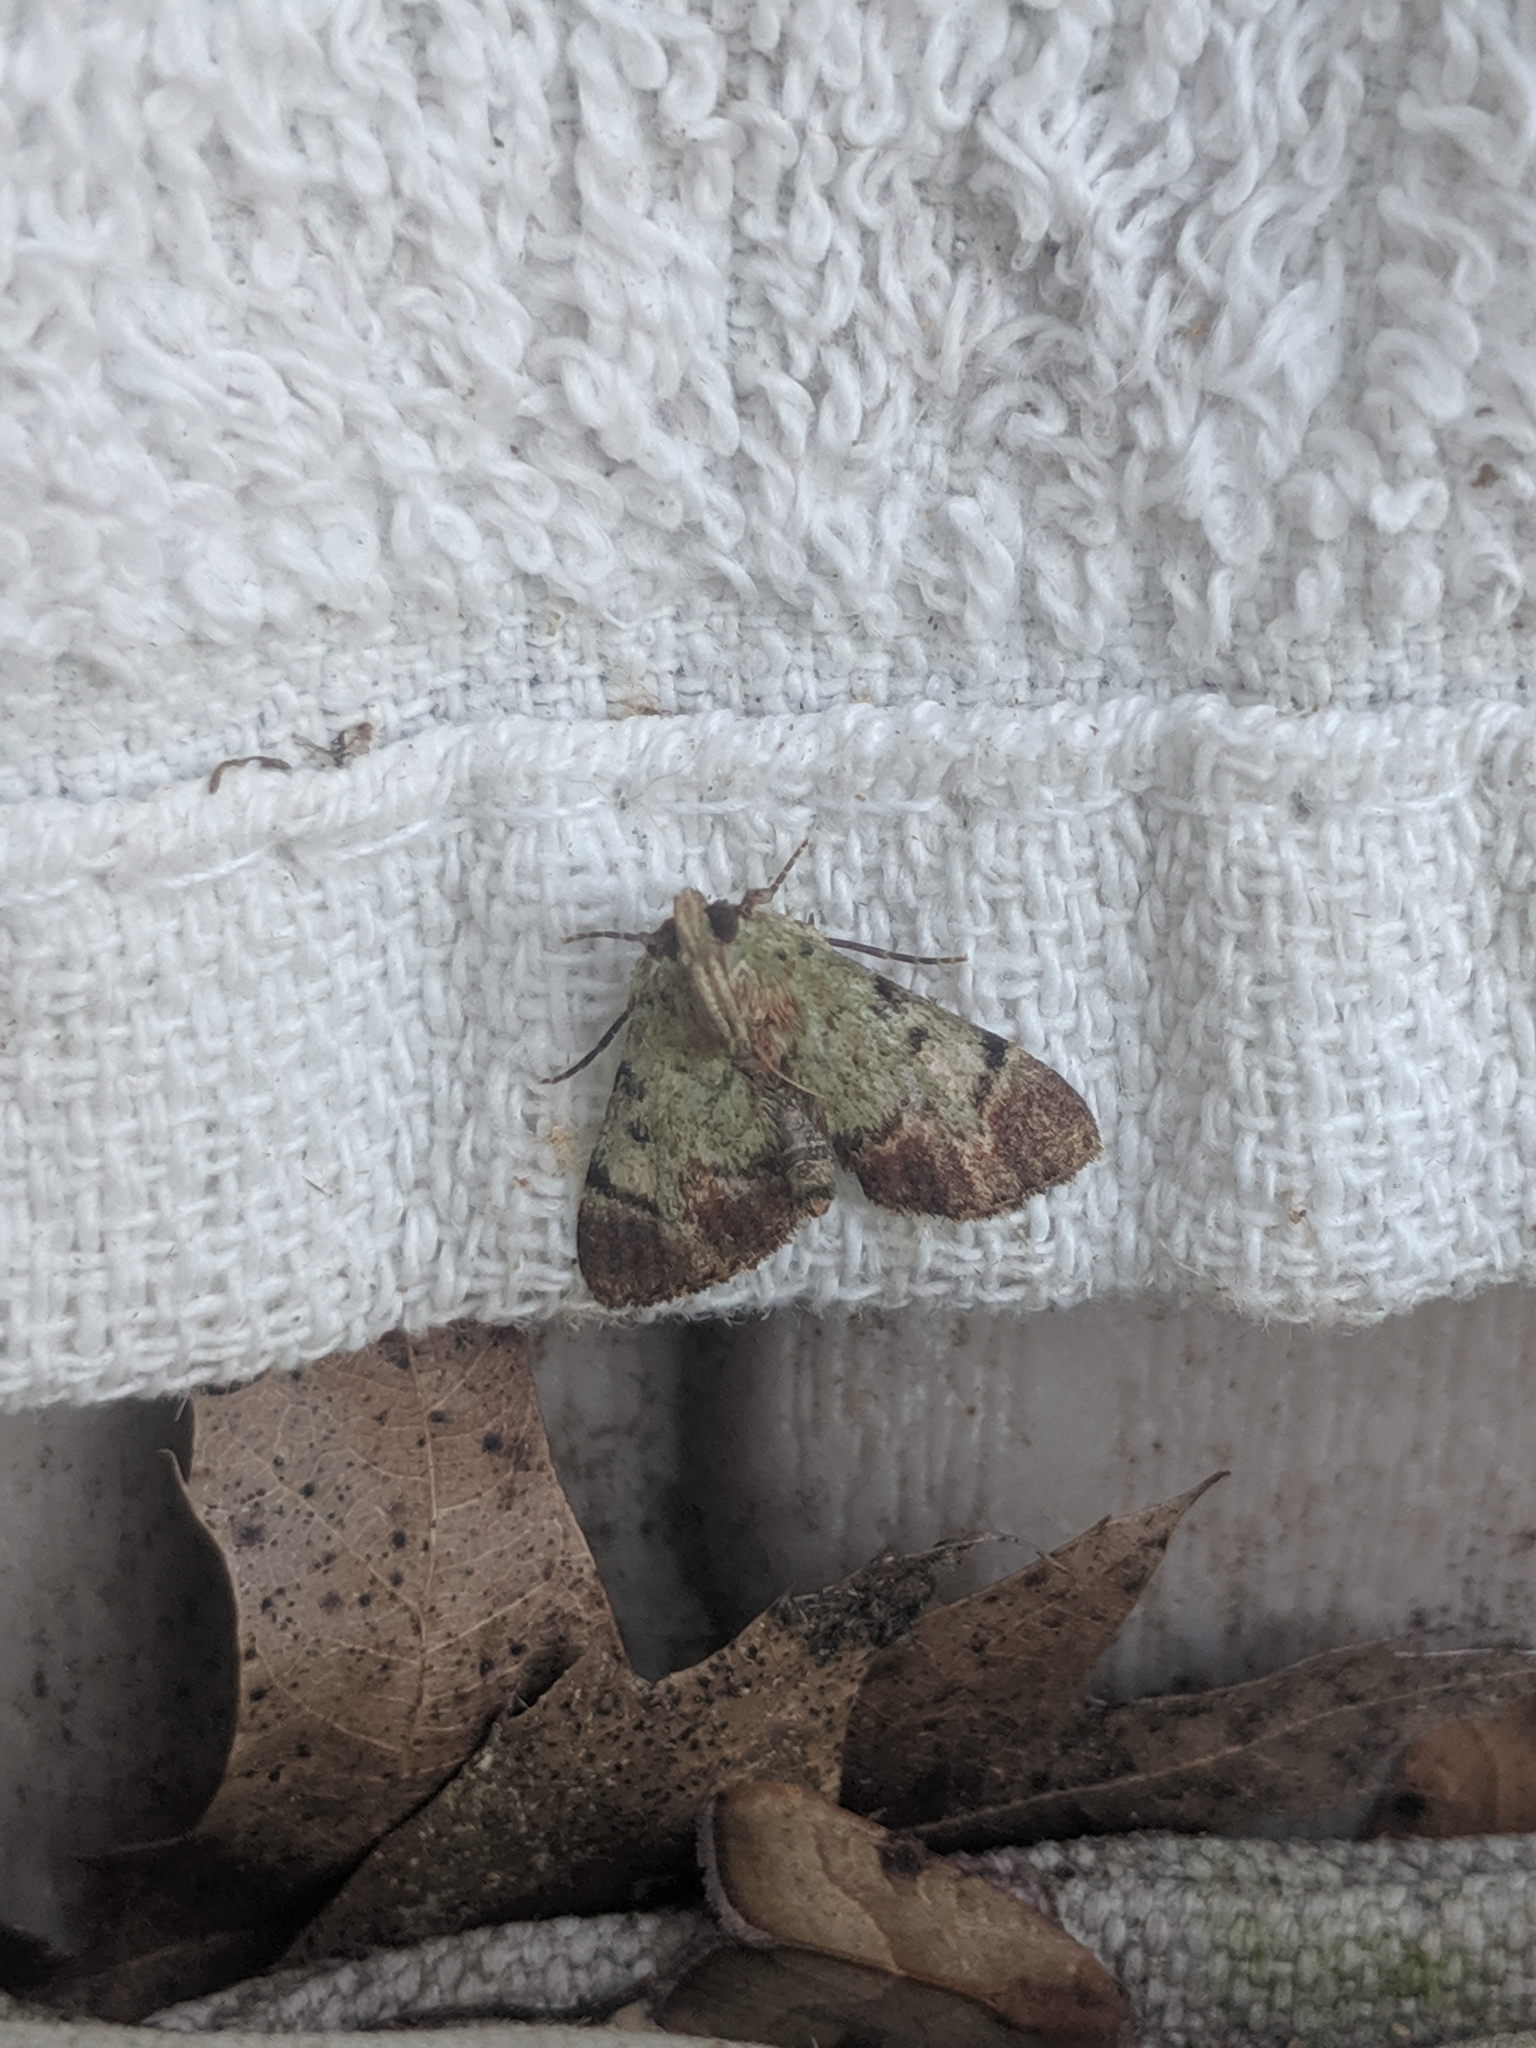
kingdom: Animalia
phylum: Arthropoda
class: Insecta
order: Lepidoptera
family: Pyralidae
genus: Epipaschia
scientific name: Epipaschia superatalis
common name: Dimorphic macalla moth
